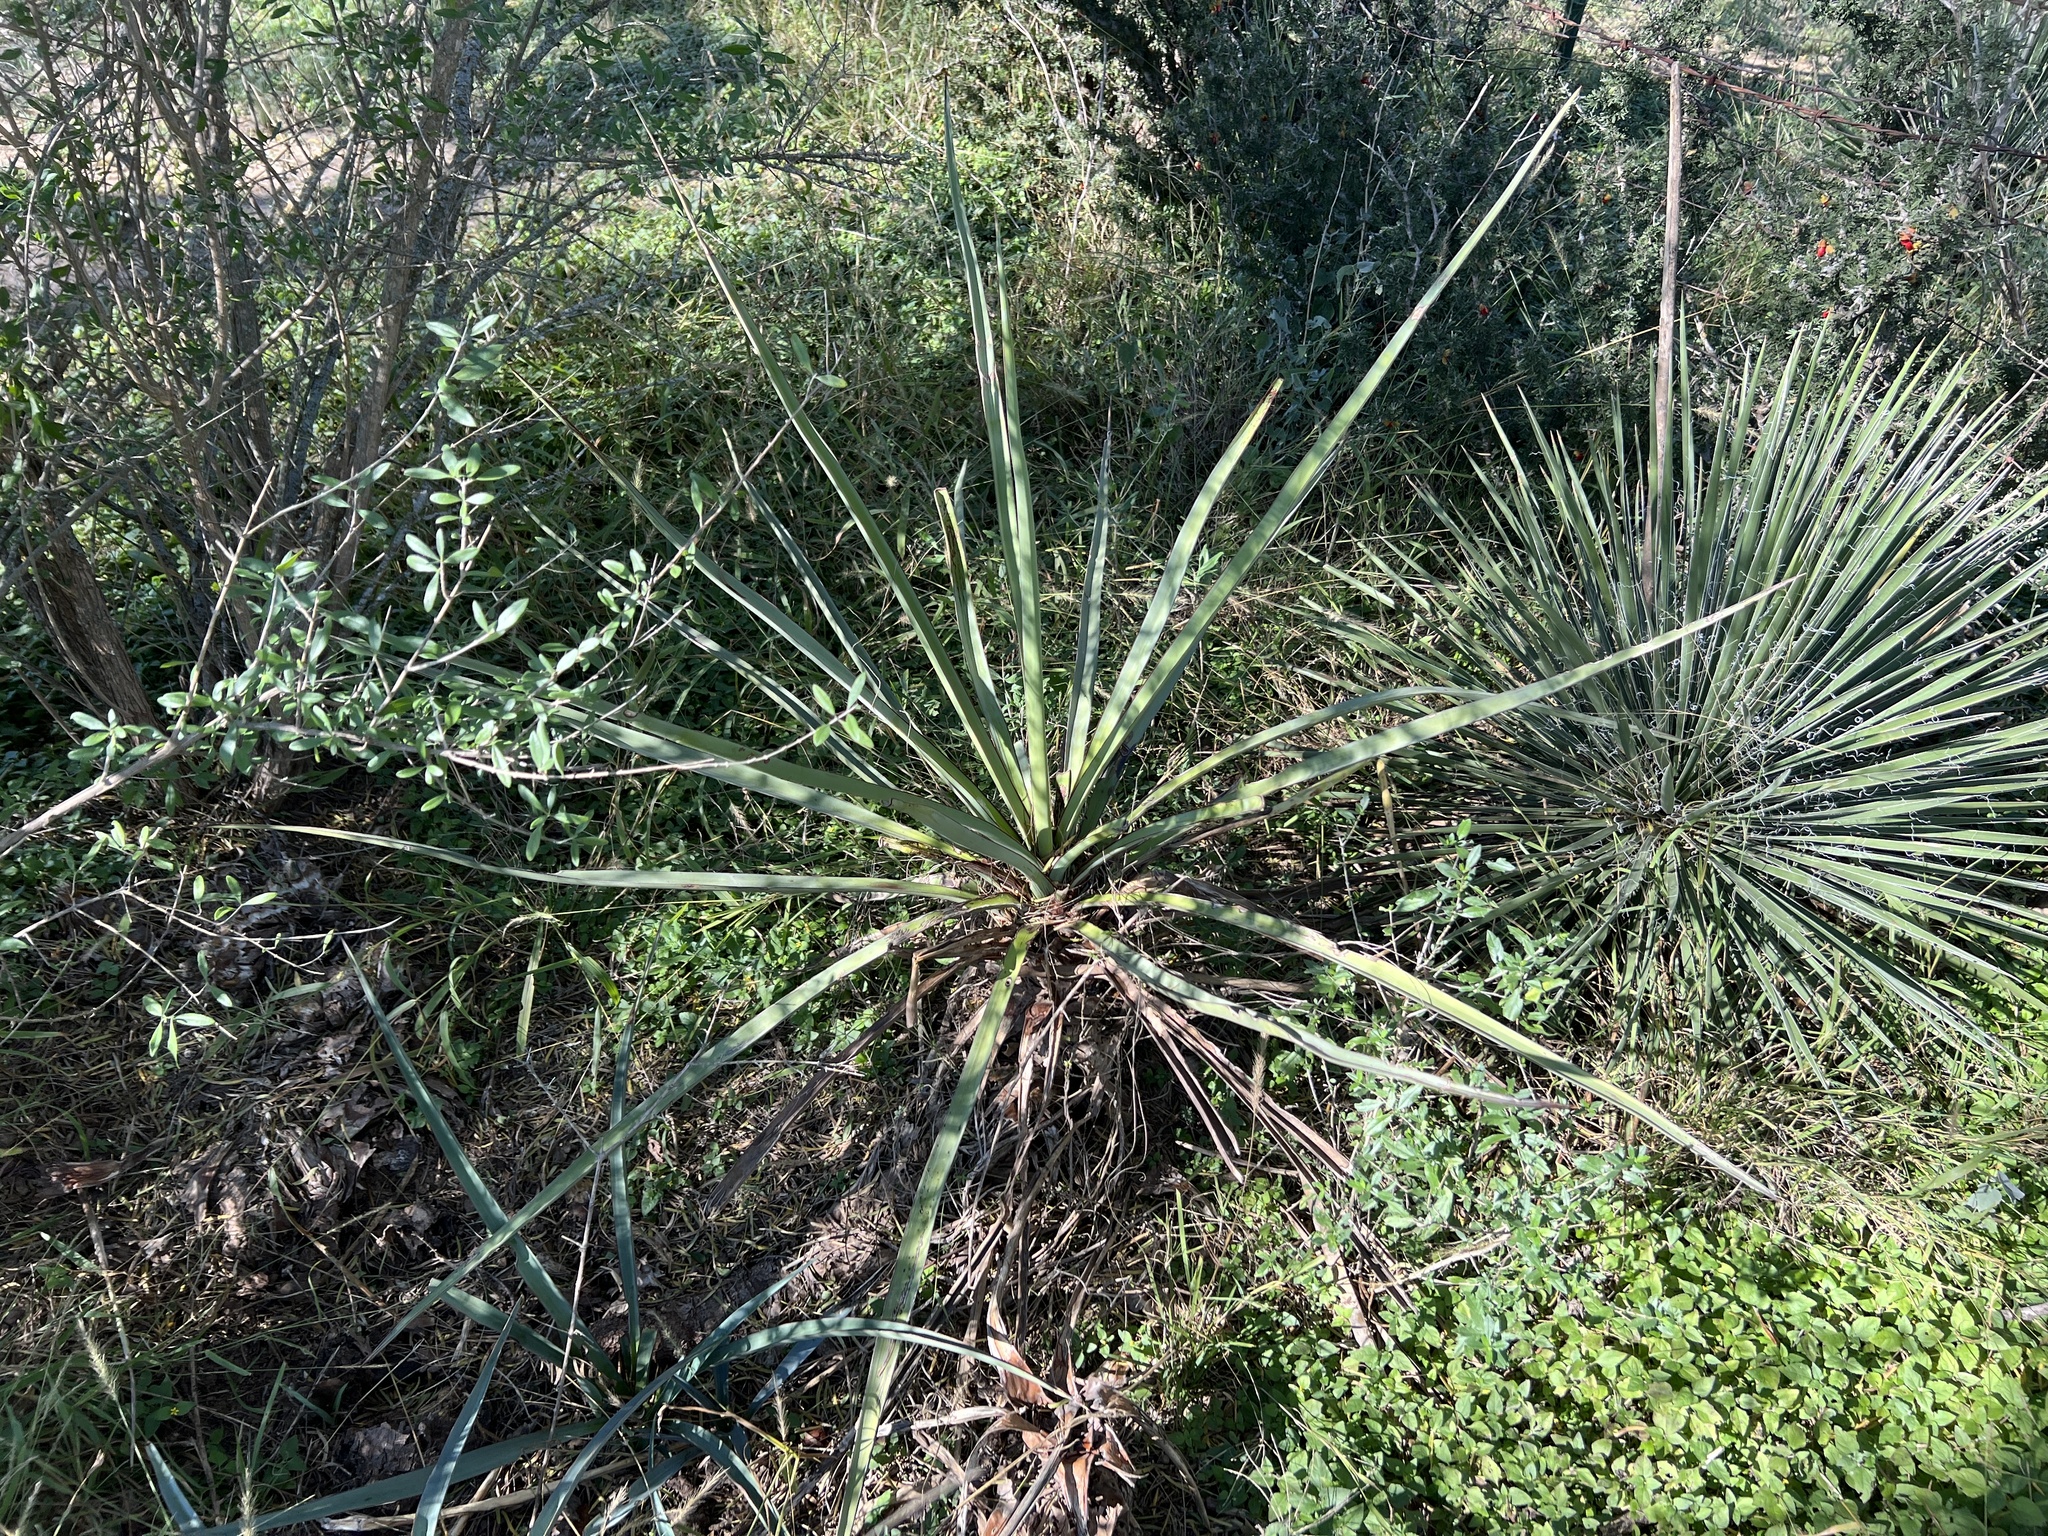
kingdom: Plantae
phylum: Tracheophyta
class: Liliopsida
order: Asparagales
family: Asparagaceae
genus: Yucca
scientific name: Yucca treculiana
